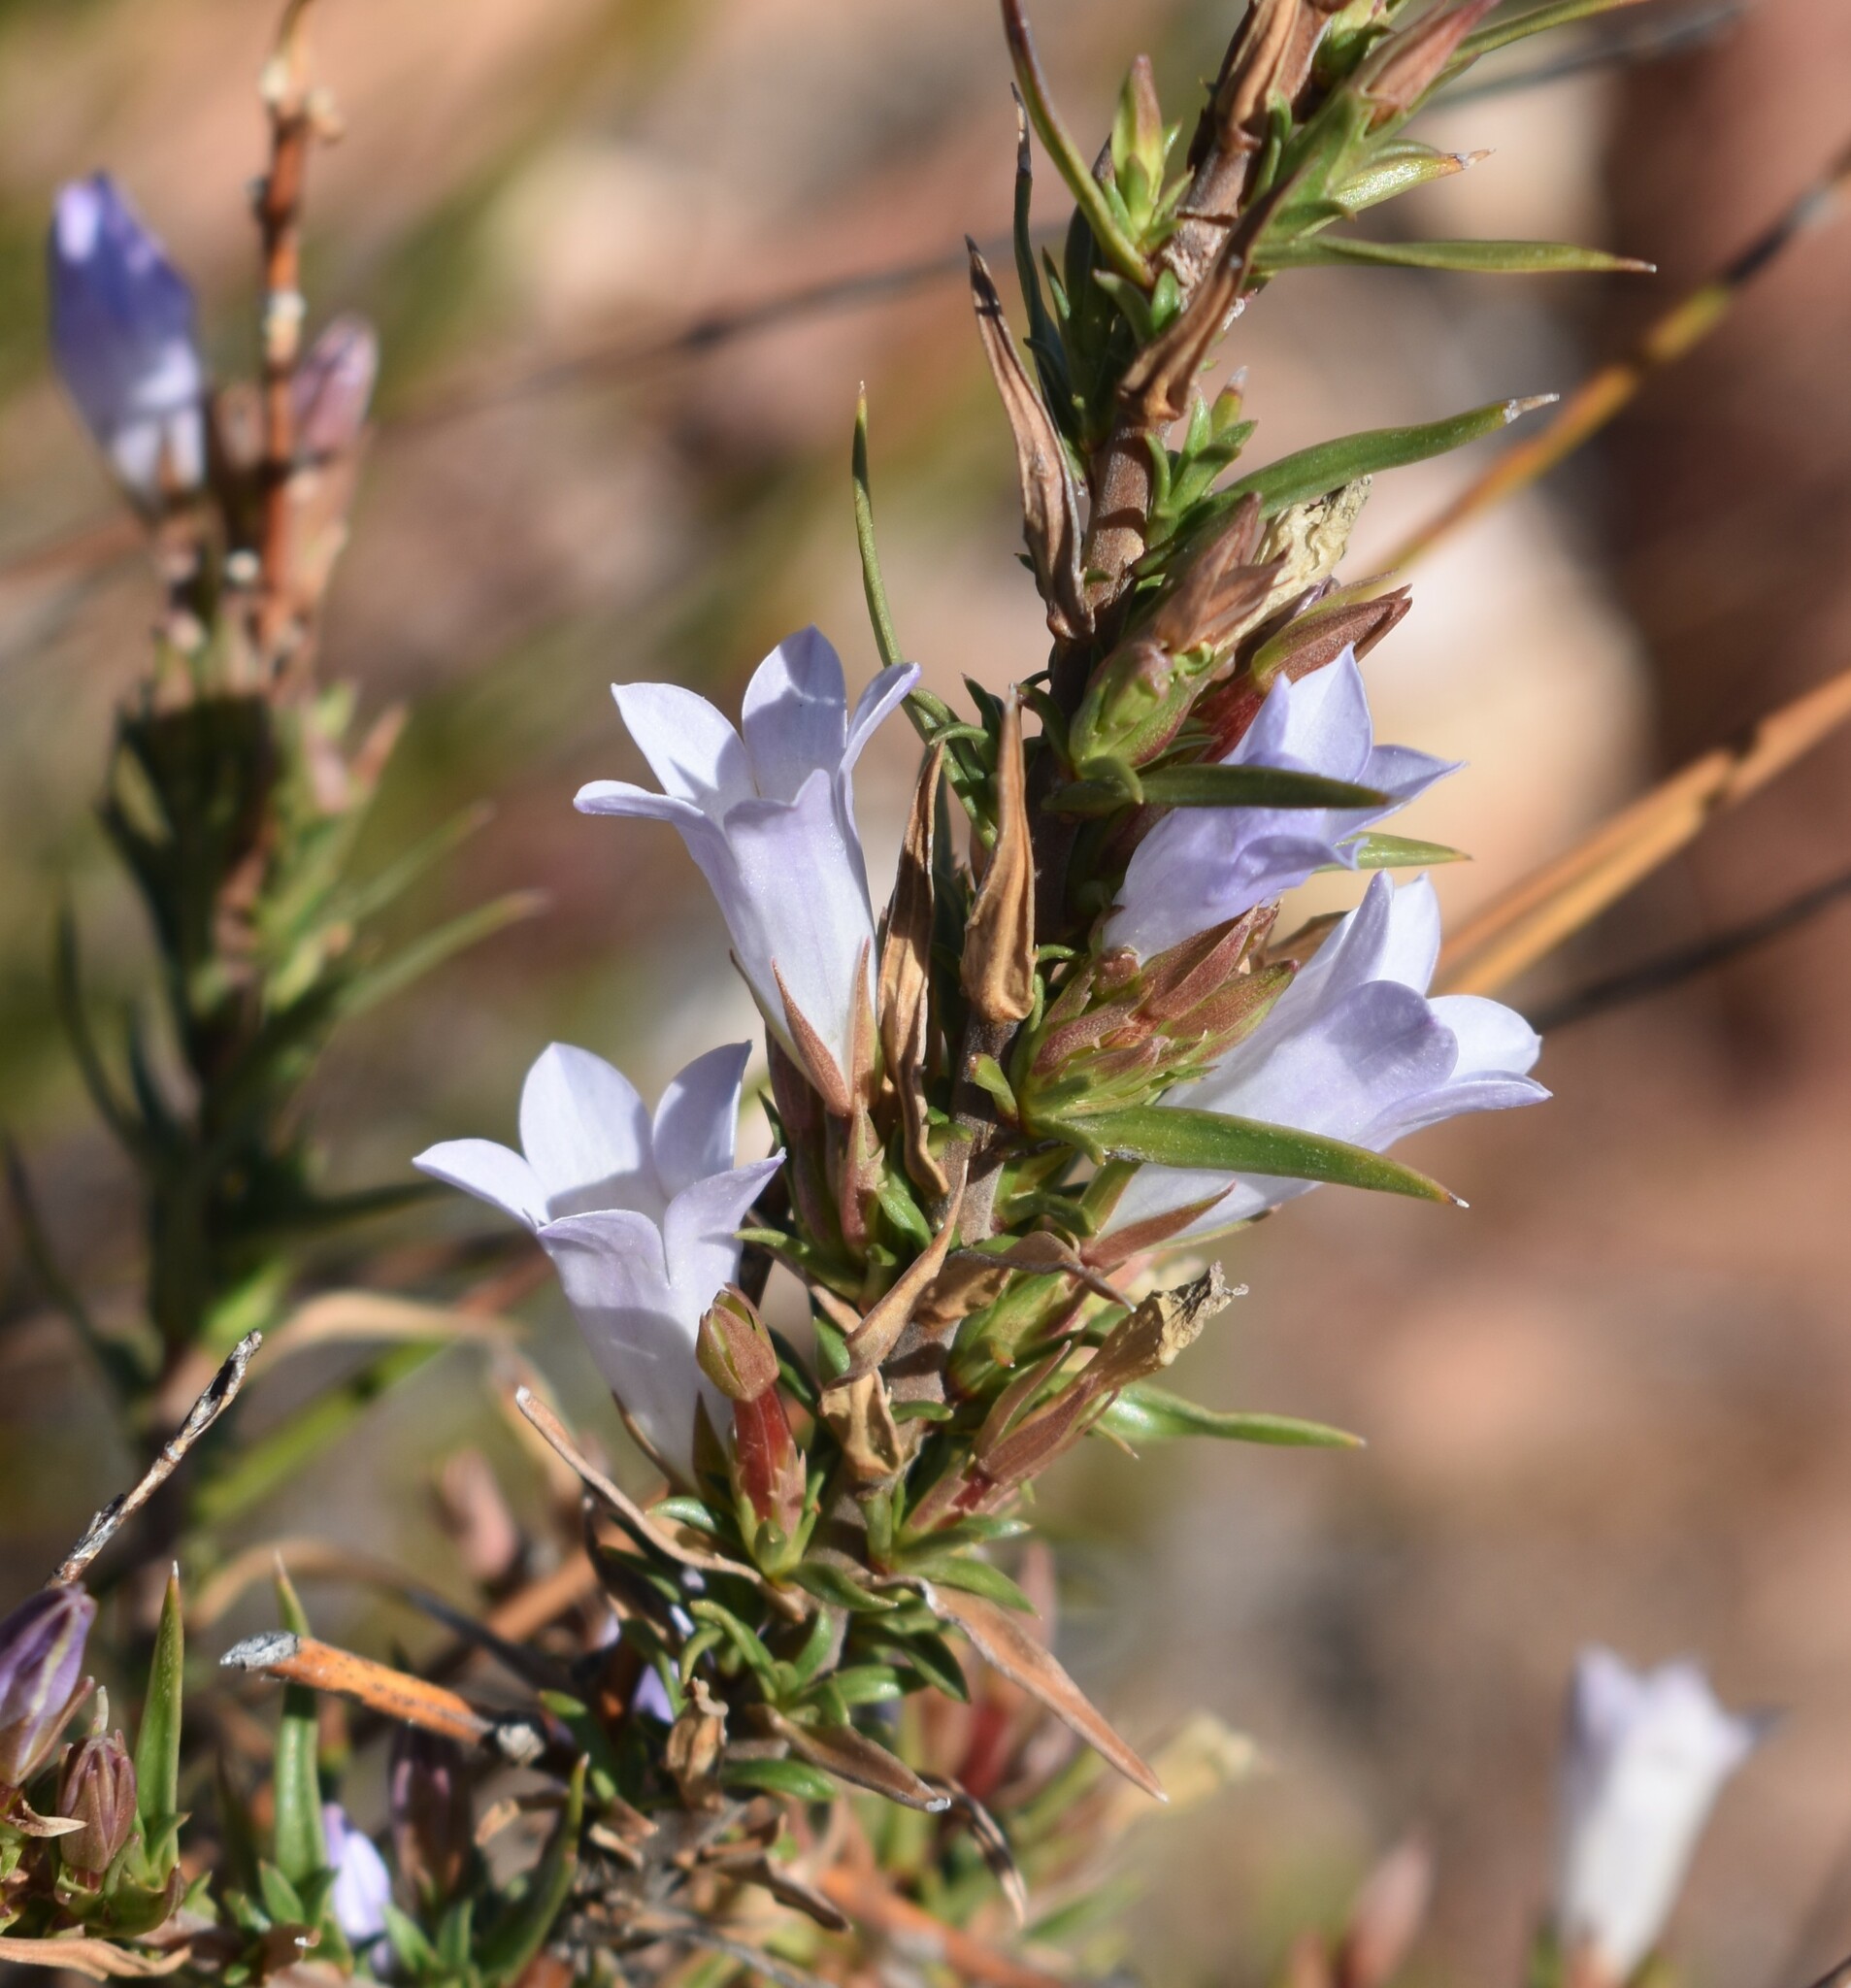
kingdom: Plantae
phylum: Tracheophyta
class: Magnoliopsida
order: Asterales
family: Campanulaceae
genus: Prismatocarpus
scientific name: Prismatocarpus candolleanus
